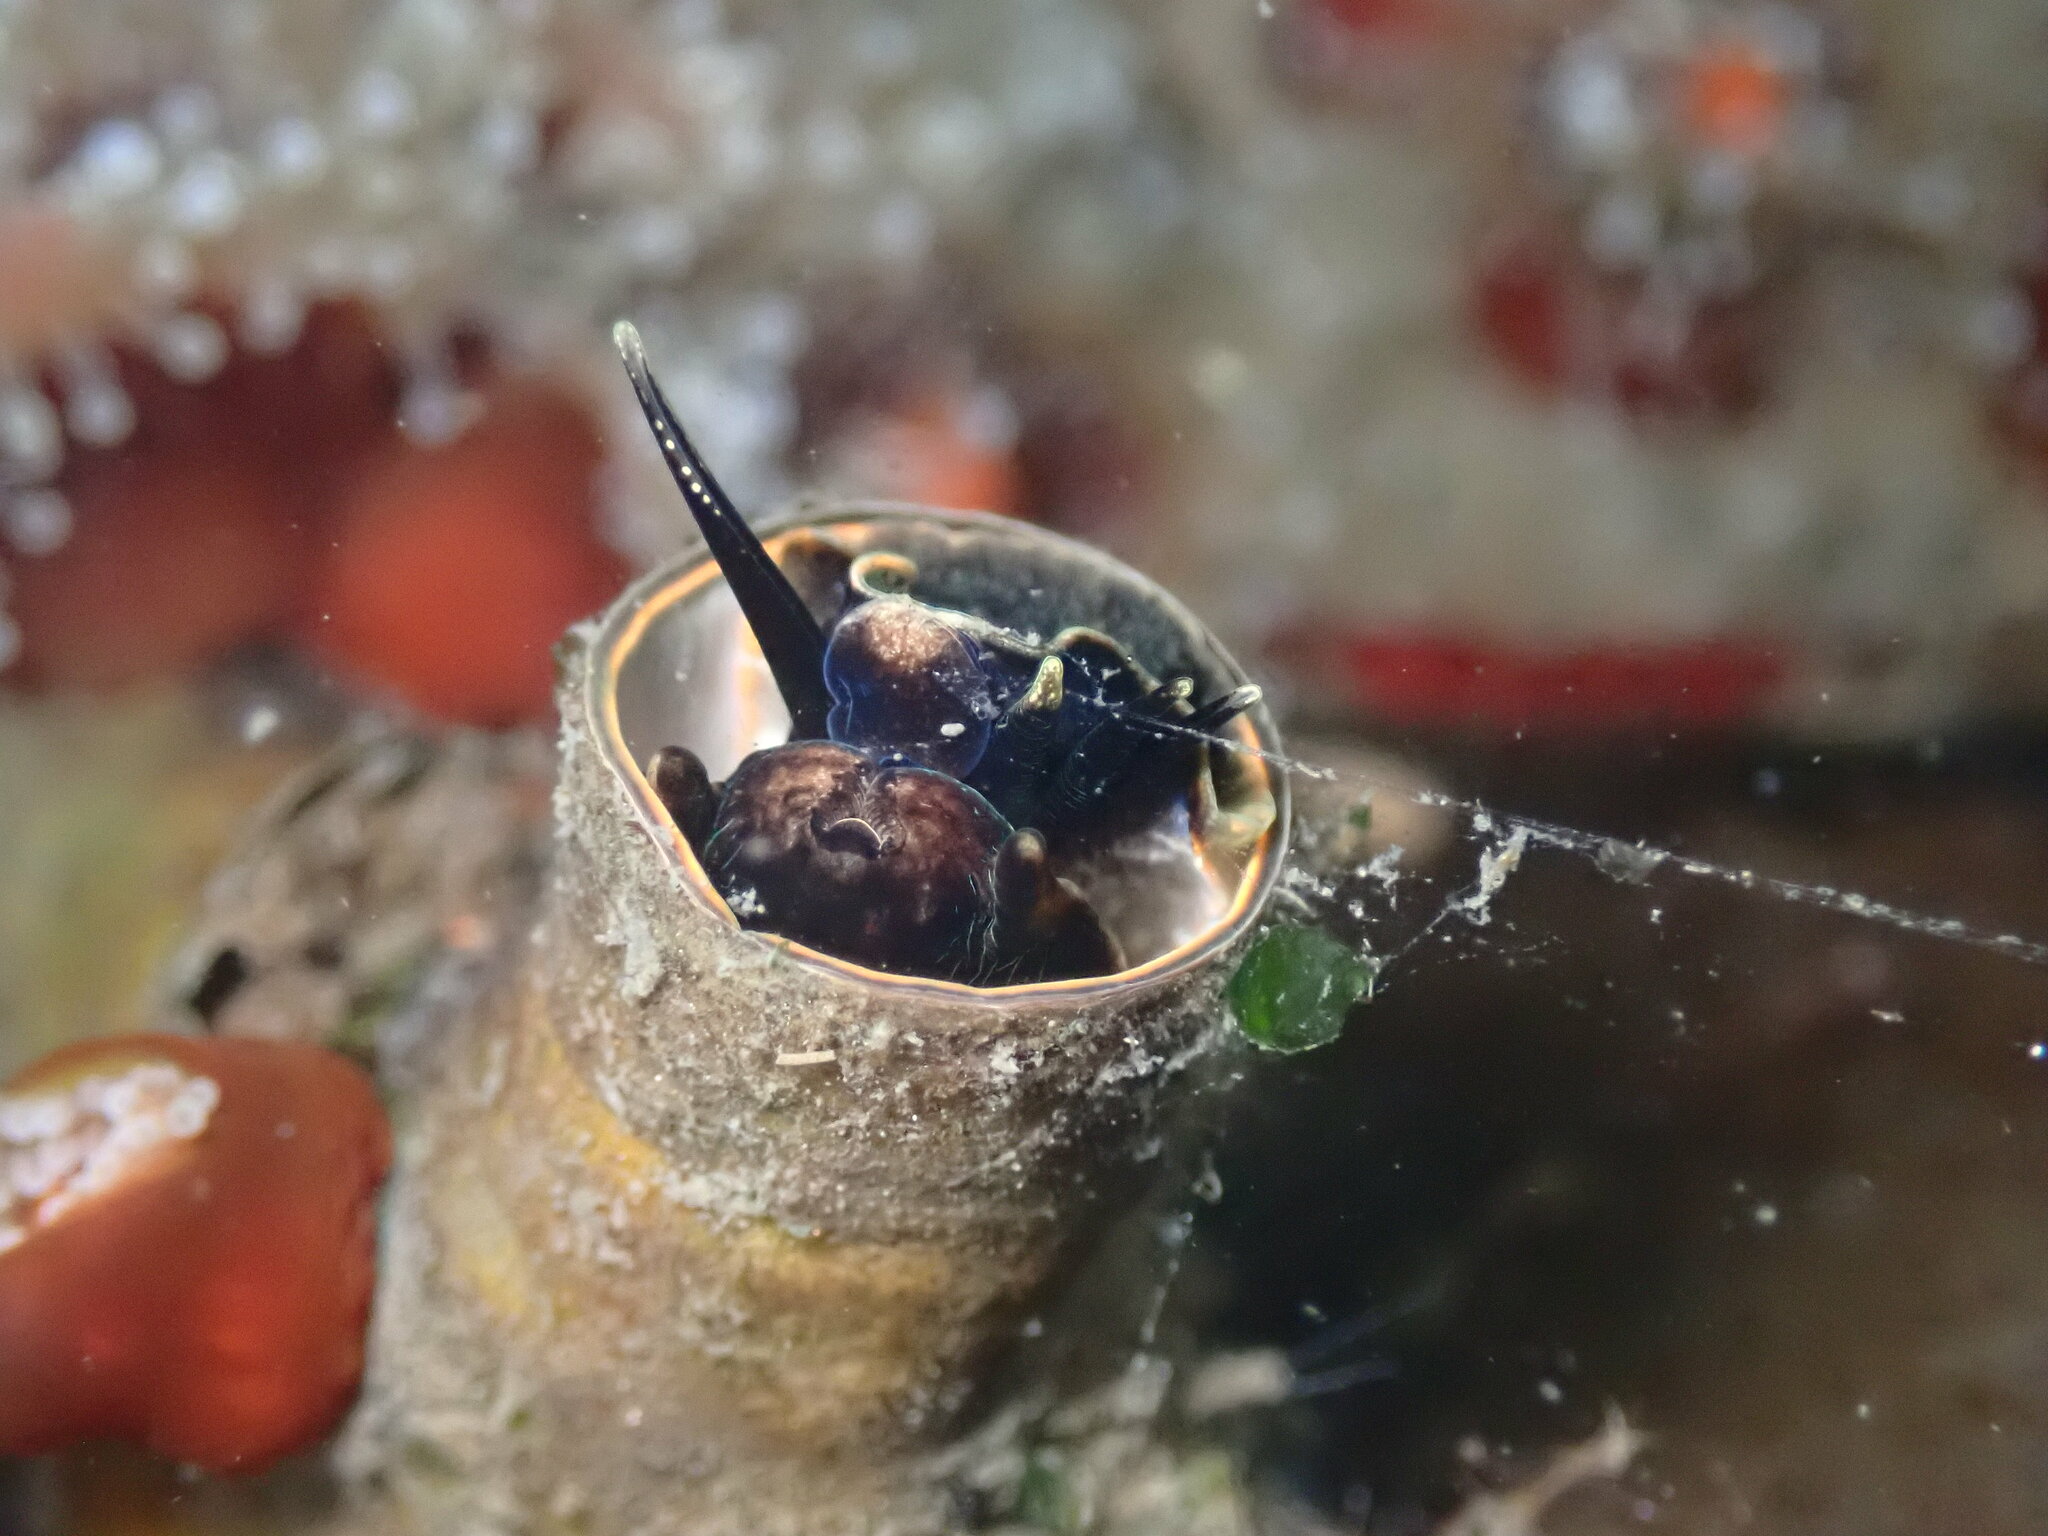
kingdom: Animalia
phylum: Mollusca
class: Gastropoda
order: Littorinimorpha
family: Vermetidae
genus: Thylacodes
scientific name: Thylacodes squamigerus
